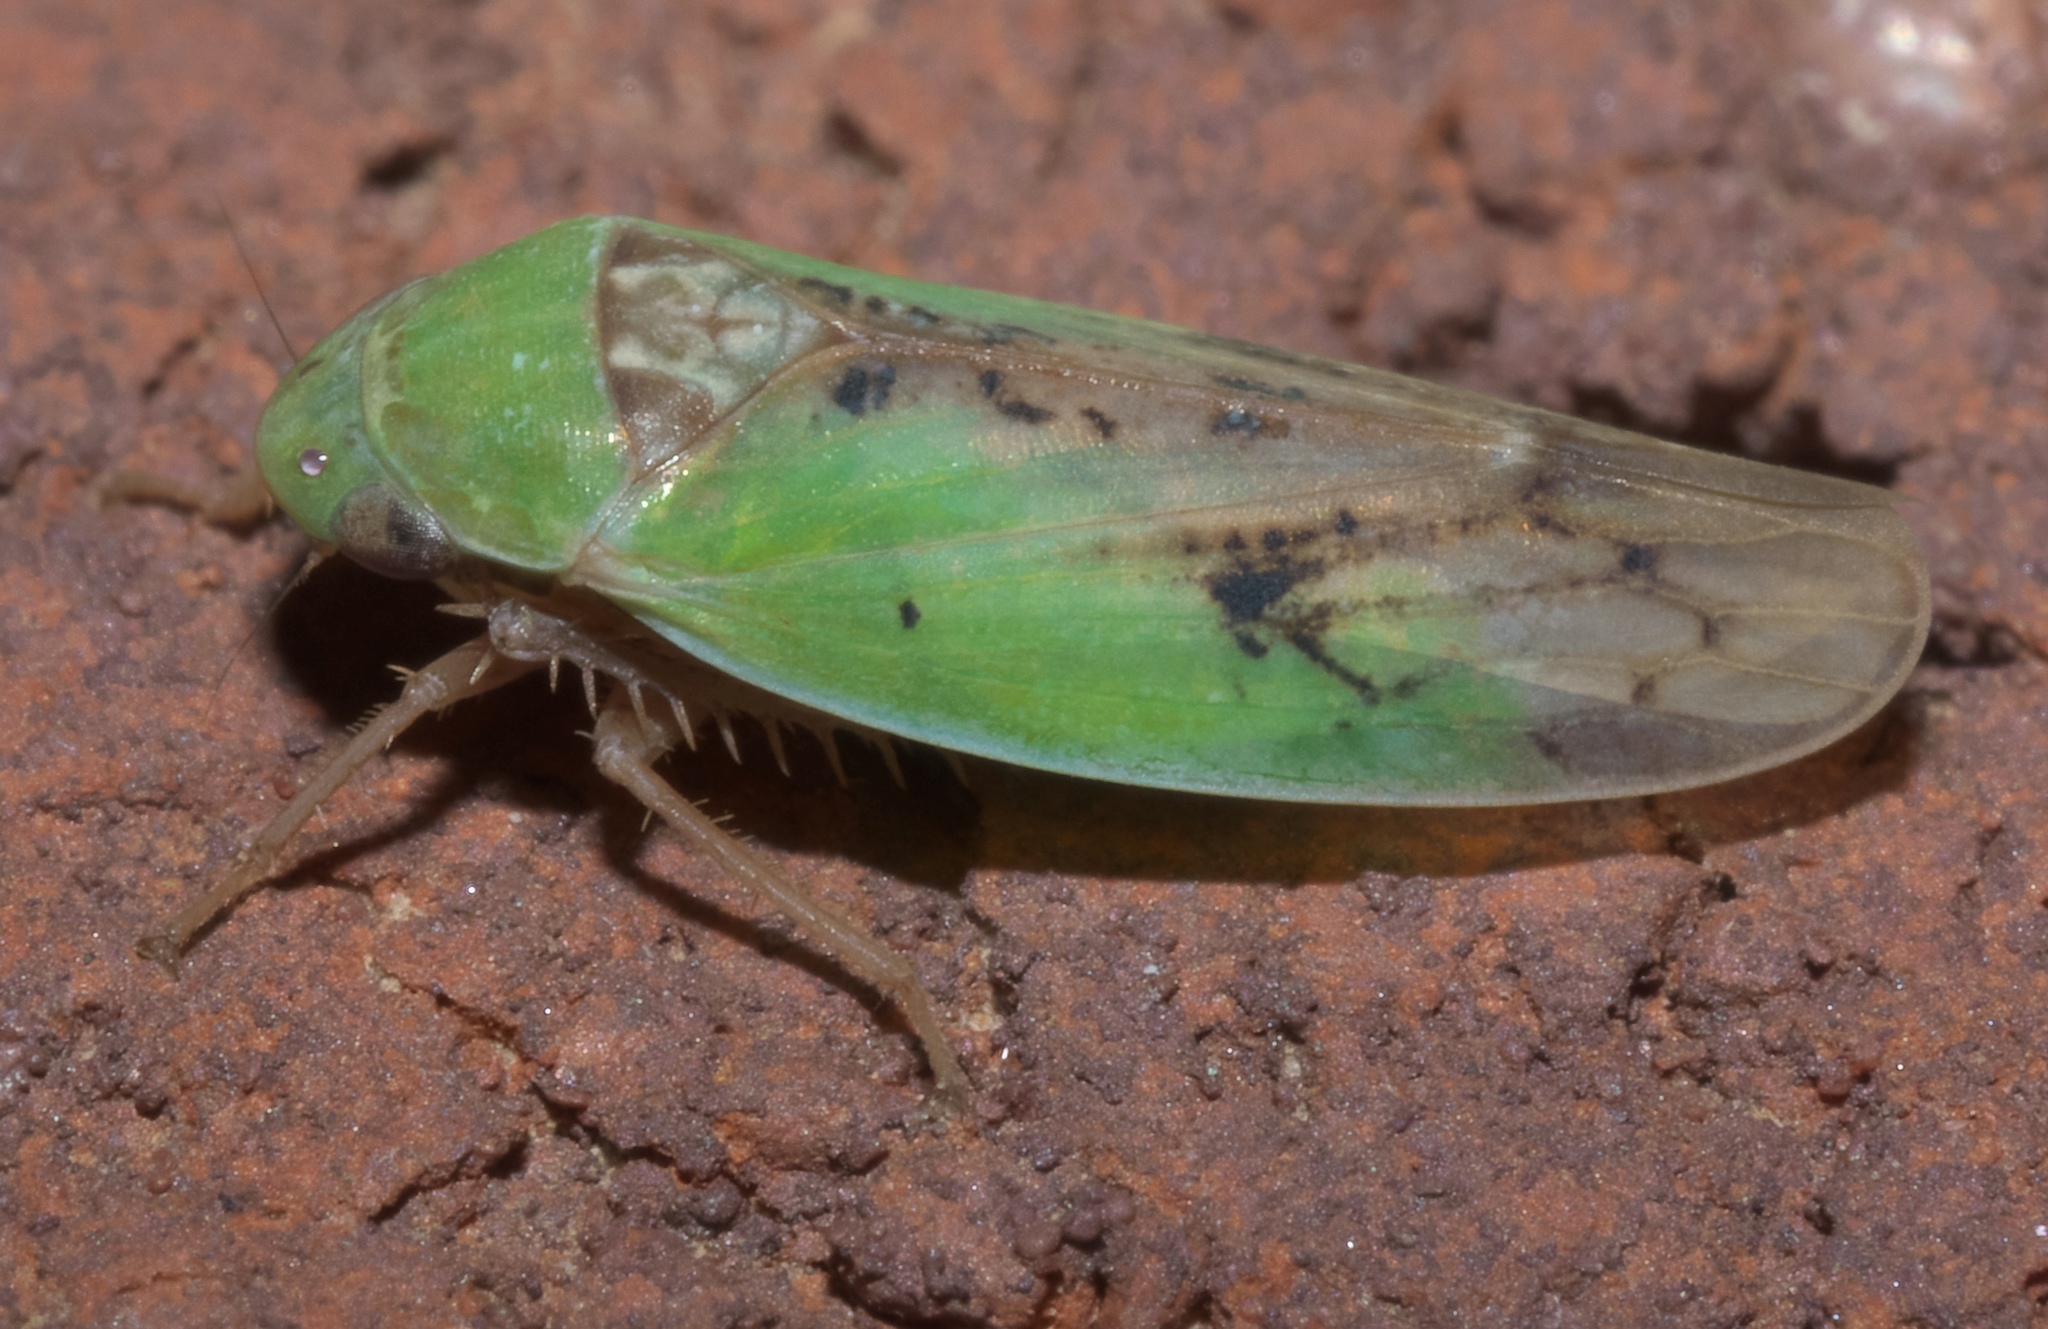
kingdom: Animalia
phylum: Arthropoda
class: Insecta
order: Hemiptera
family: Cicadellidae
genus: Ponana
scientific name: Ponana pectoralis
